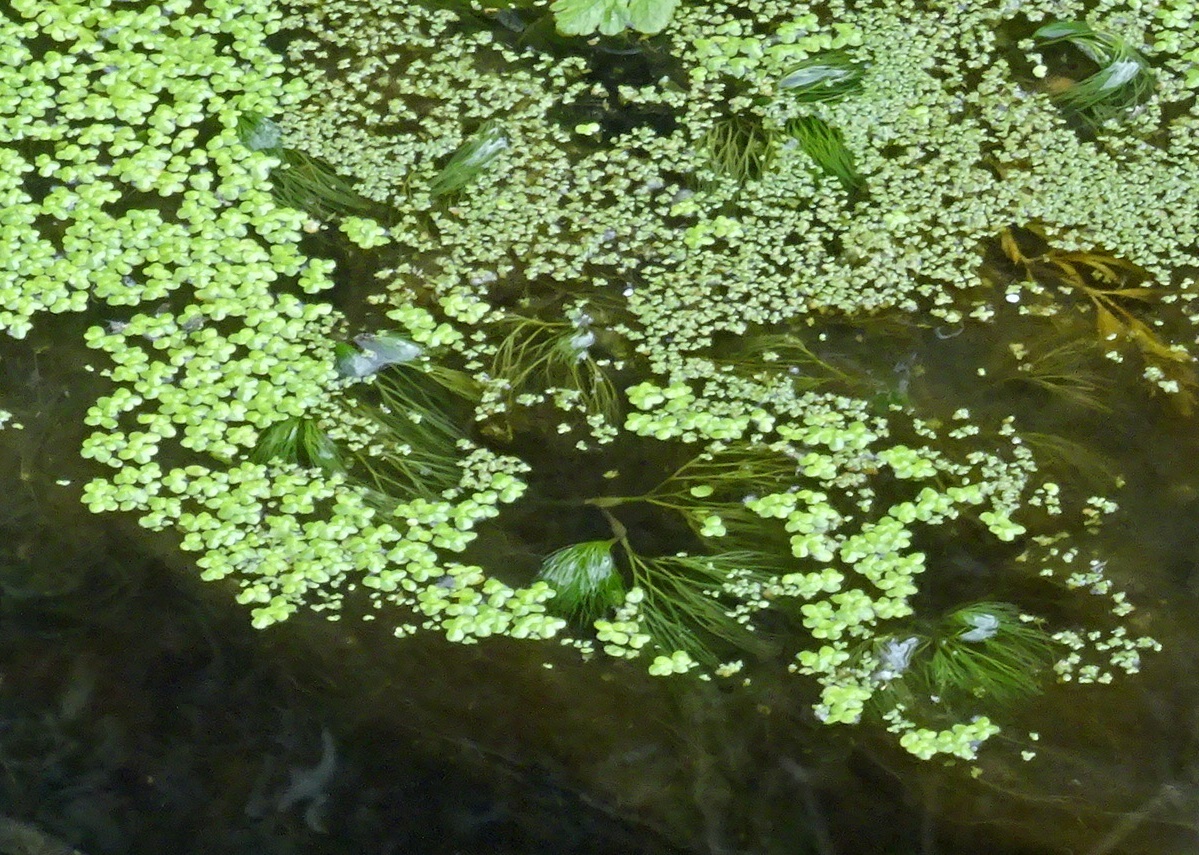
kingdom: Plantae
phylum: Tracheophyta
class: Liliopsida
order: Alismatales
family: Araceae
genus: Lemna
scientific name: Lemna minor
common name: Common duckweed
